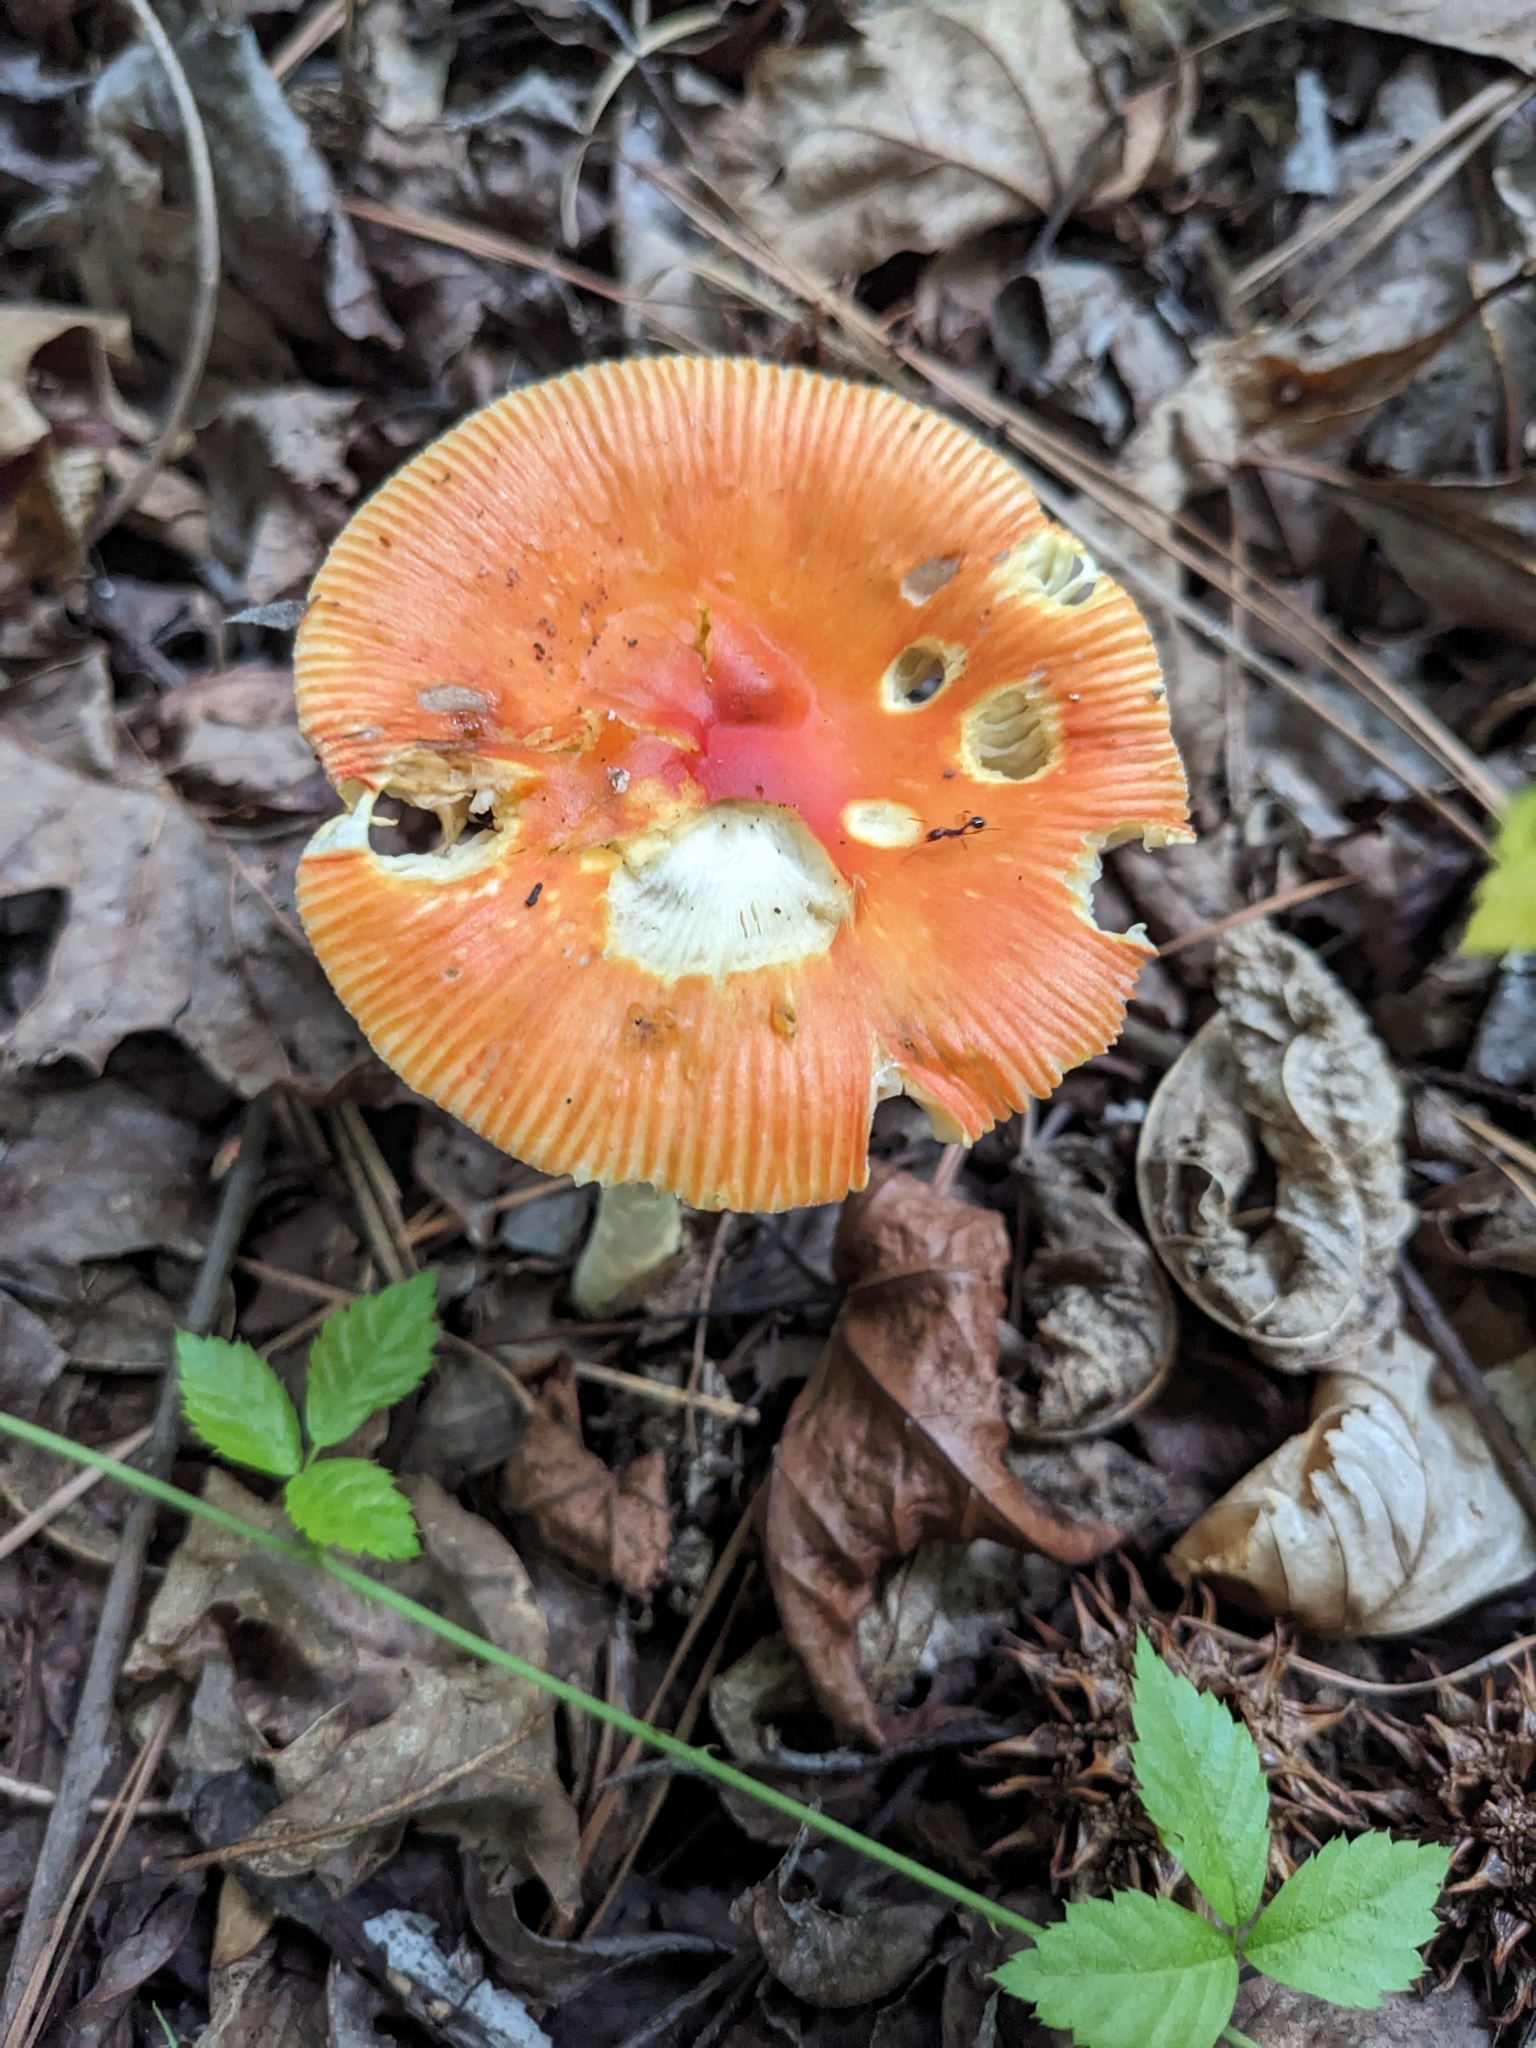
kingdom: Fungi
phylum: Basidiomycota
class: Agaricomycetes
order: Agaricales
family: Amanitaceae
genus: Amanita
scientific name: Amanita parcivolvata
